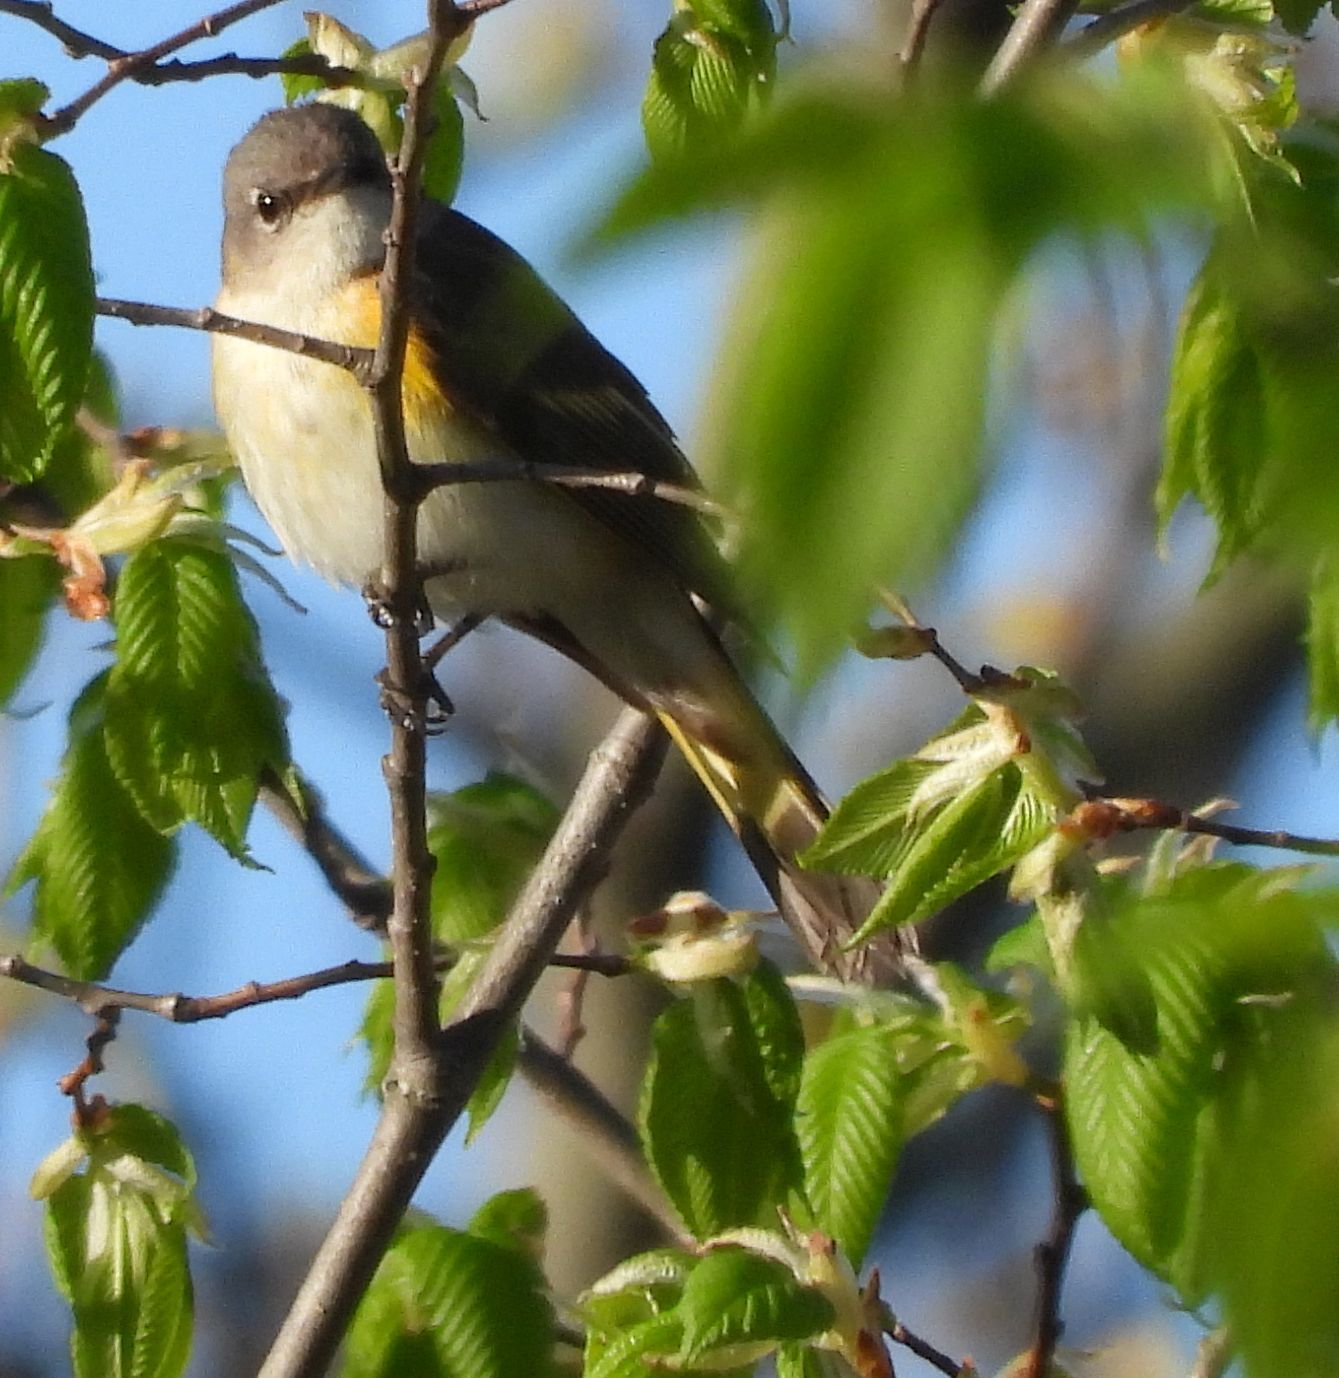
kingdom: Animalia
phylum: Chordata
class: Aves
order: Passeriformes
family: Parulidae
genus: Setophaga
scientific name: Setophaga ruticilla
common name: American redstart
